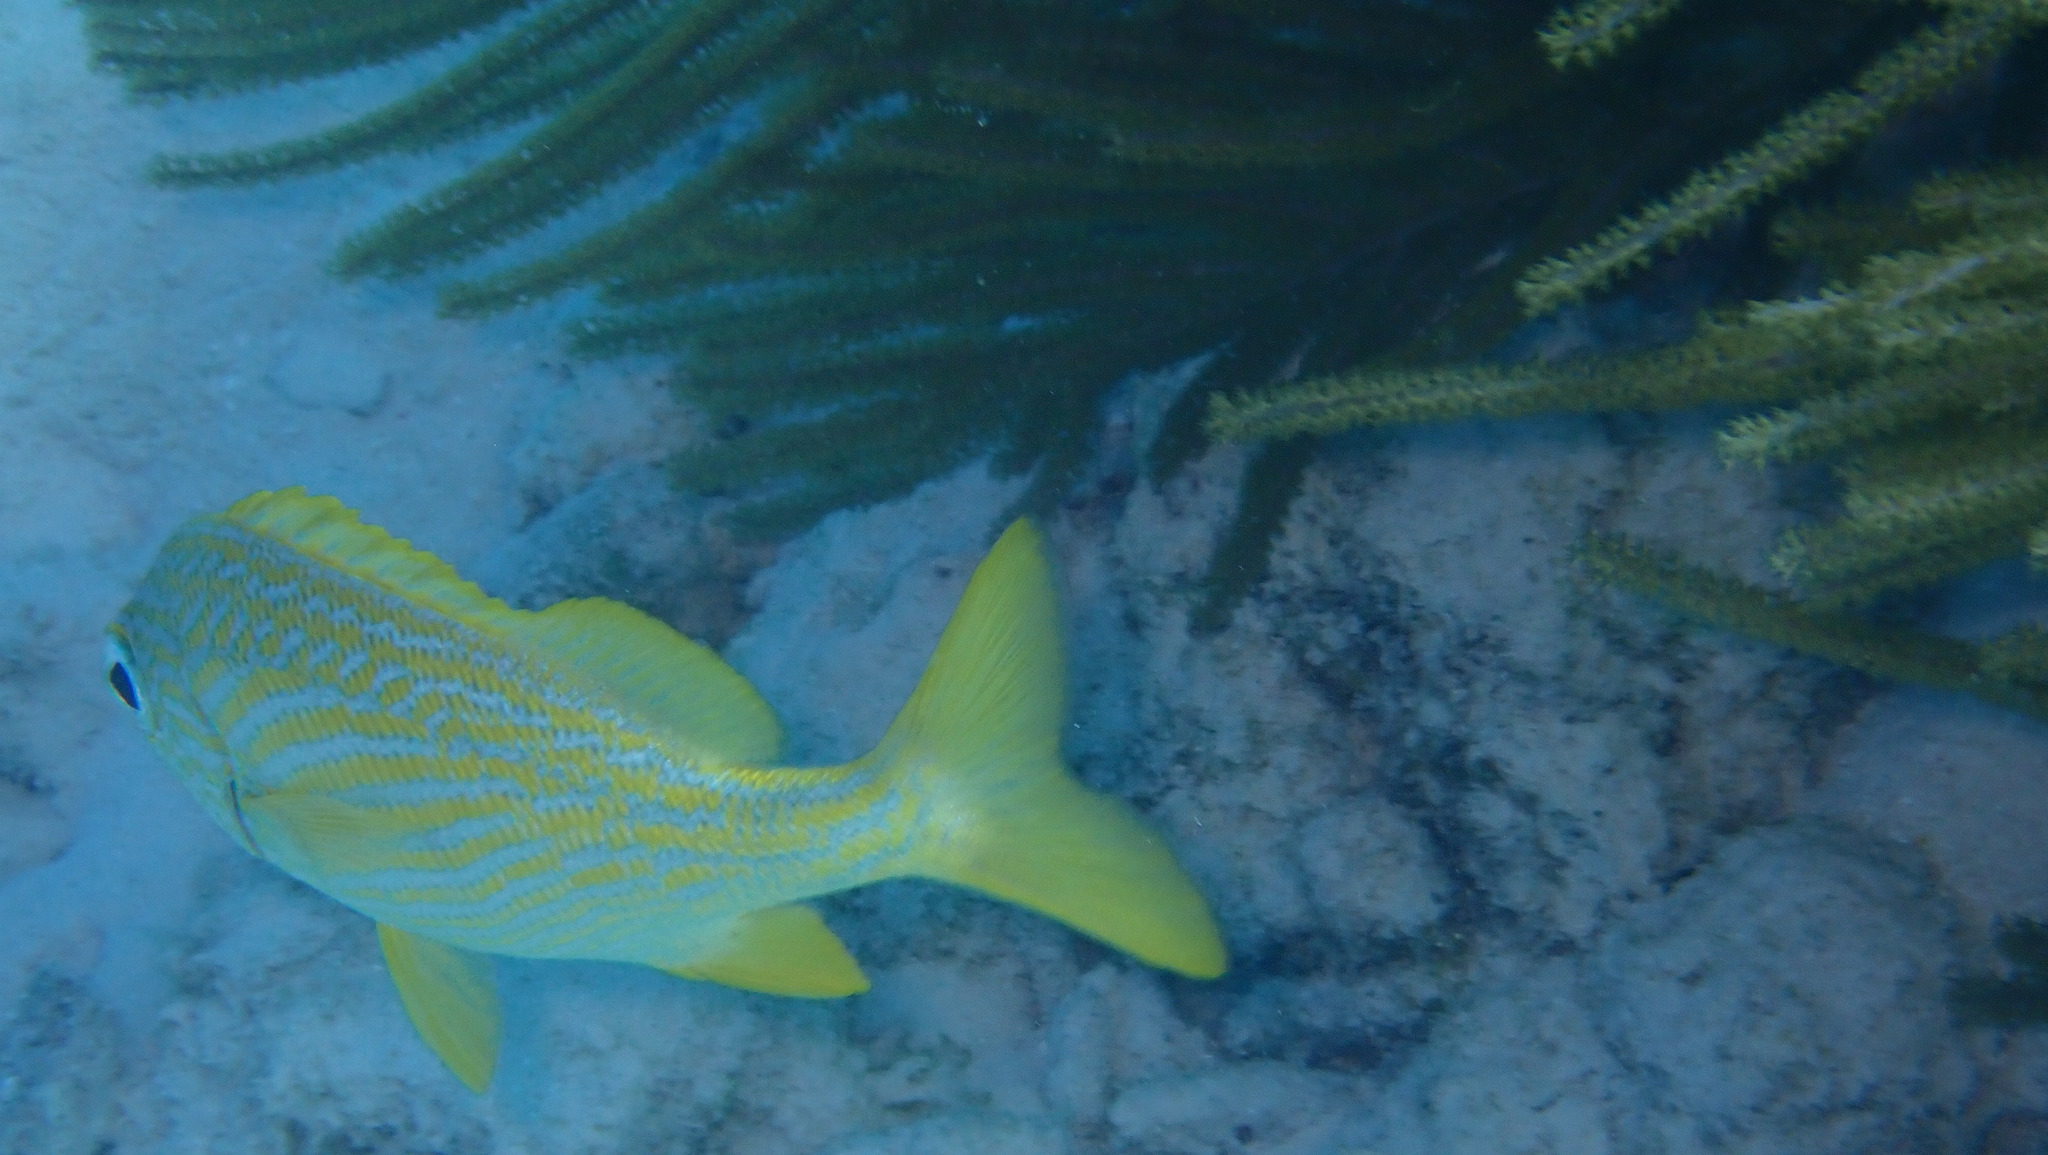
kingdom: Animalia
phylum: Chordata
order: Perciformes
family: Haemulidae
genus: Haemulon
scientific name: Haemulon flavolineatum
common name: French grunt
